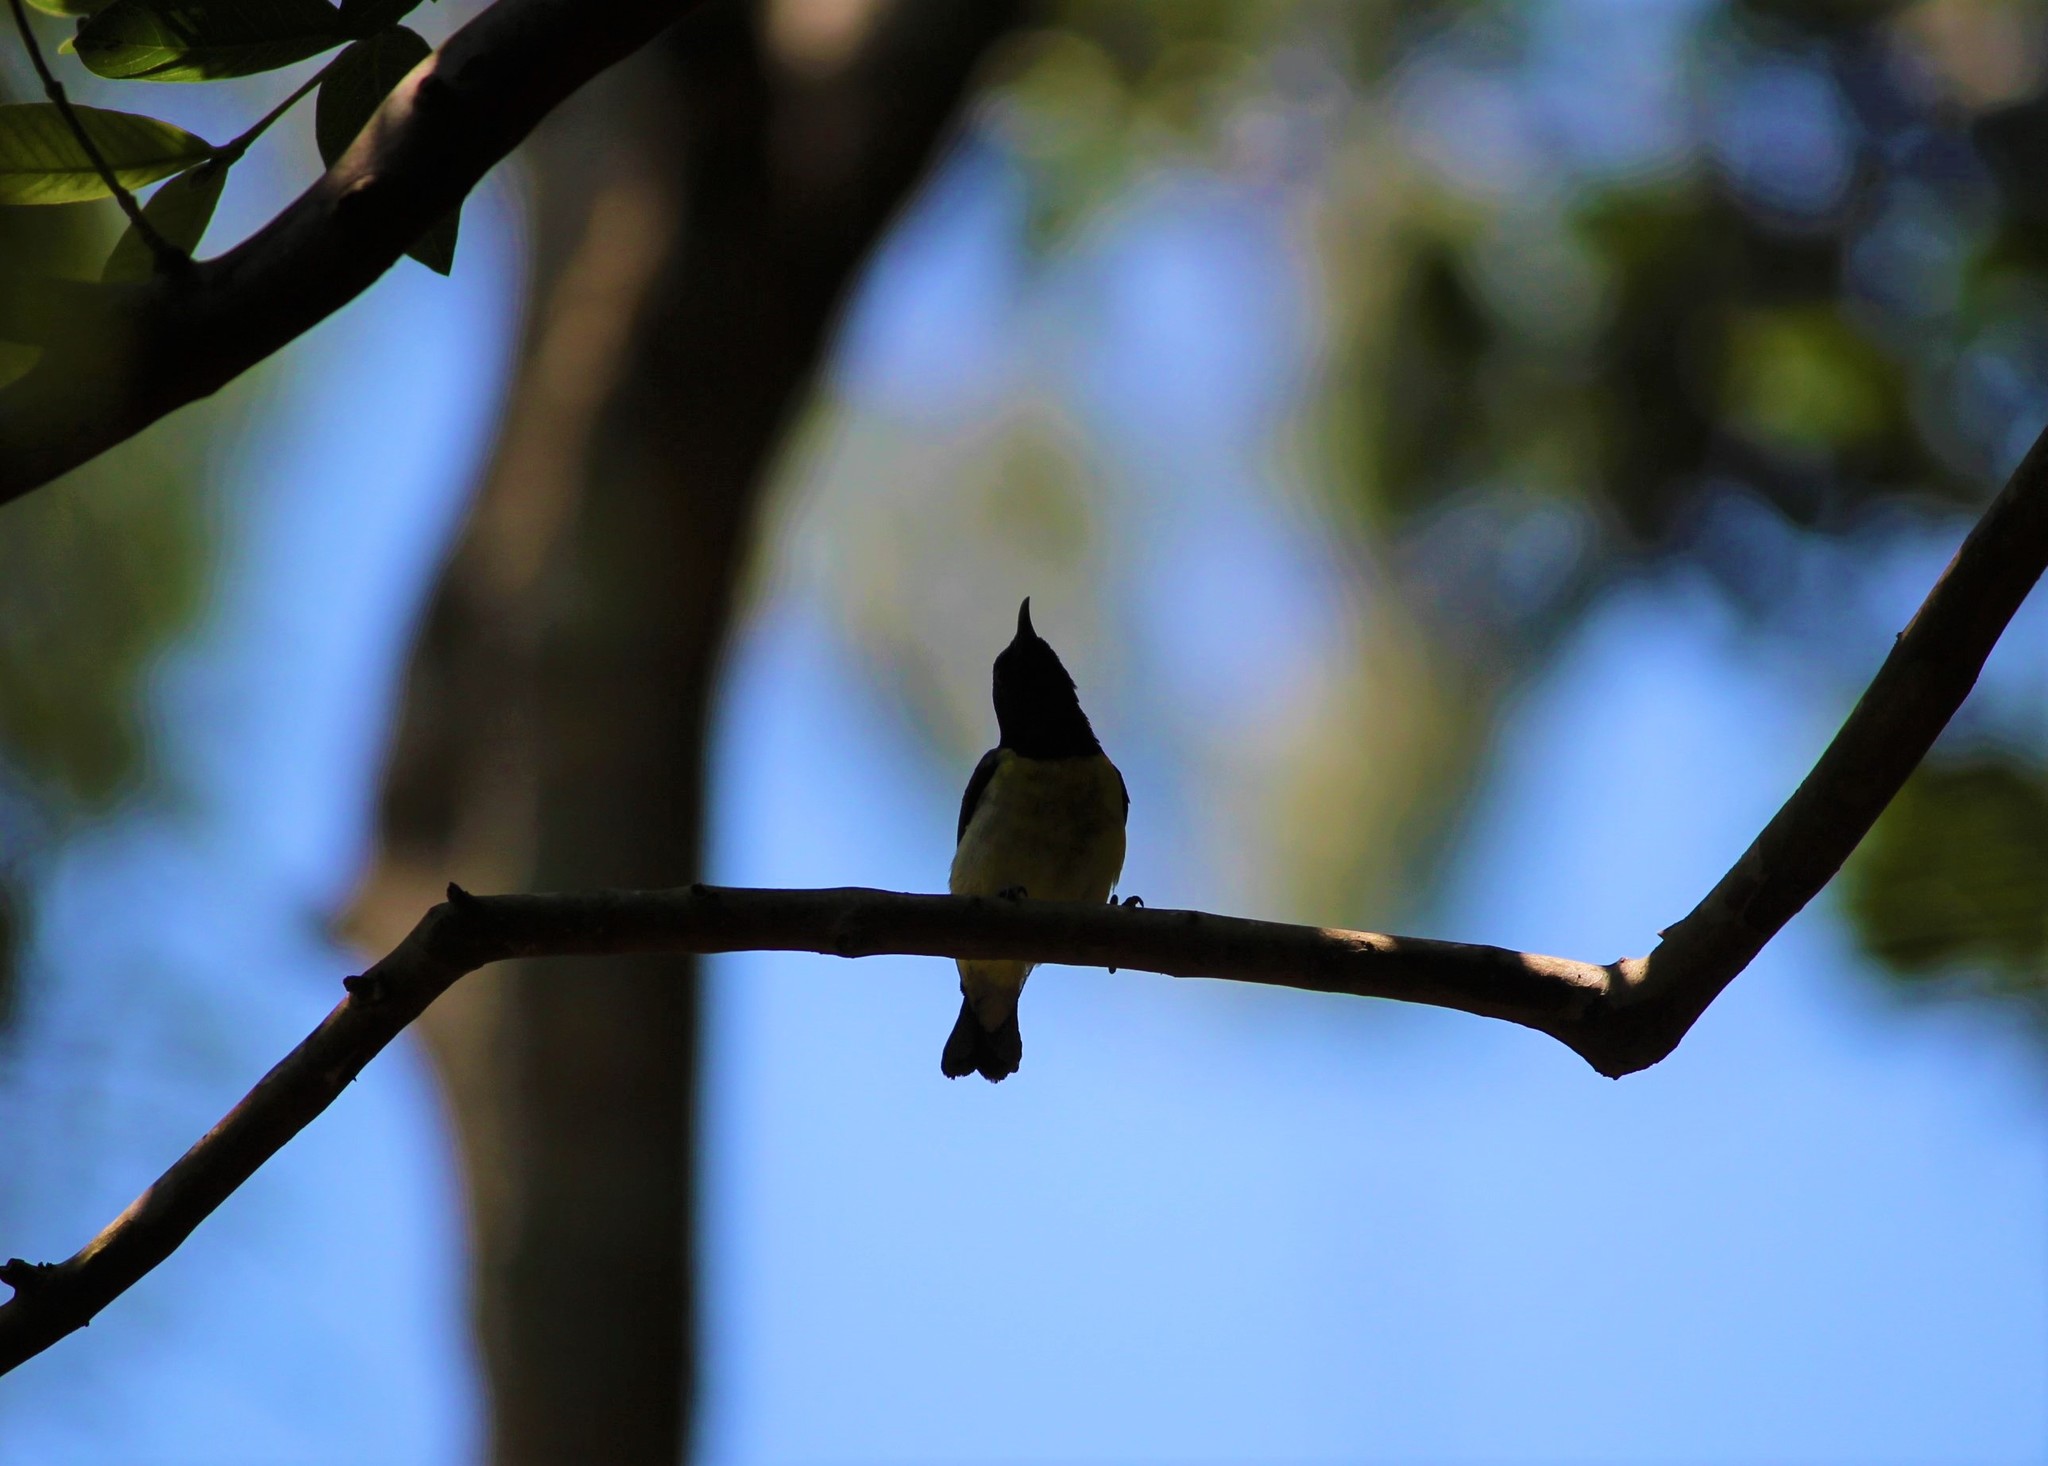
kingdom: Animalia
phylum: Chordata
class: Aves
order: Passeriformes
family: Nectariniidae
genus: Leptocoma
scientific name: Leptocoma zeylonica
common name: Purple-rumped sunbird
